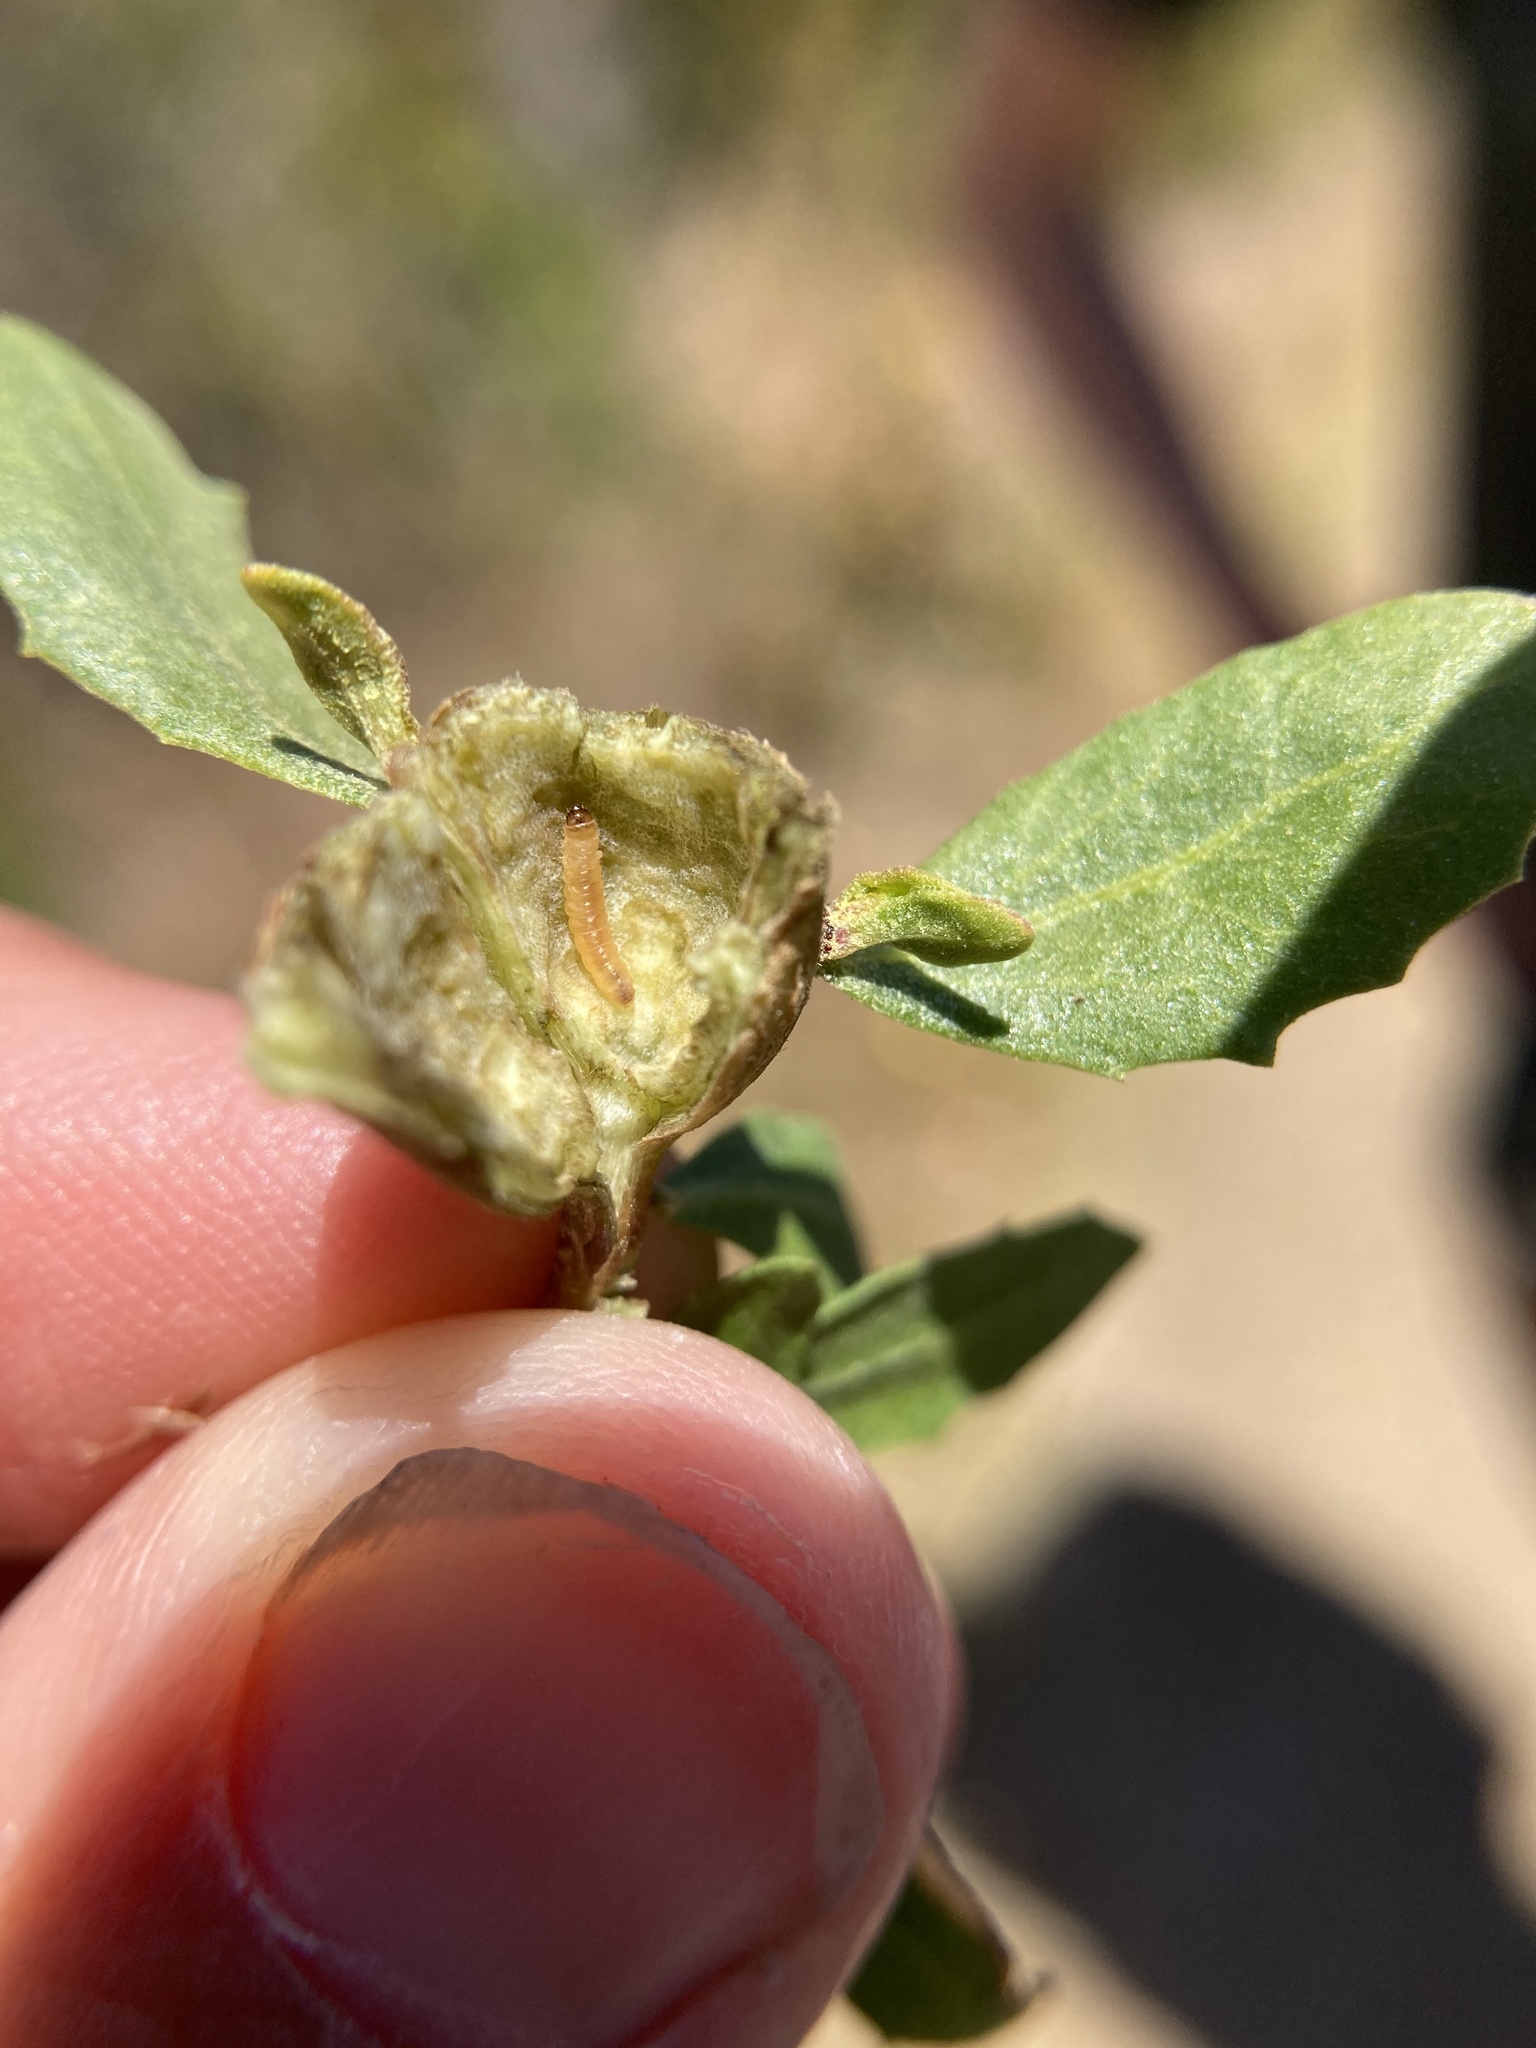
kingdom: Animalia
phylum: Arthropoda
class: Insecta
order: Lepidoptera
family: Gelechiidae
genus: Gnorimoschema
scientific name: Gnorimoschema baccharisella
